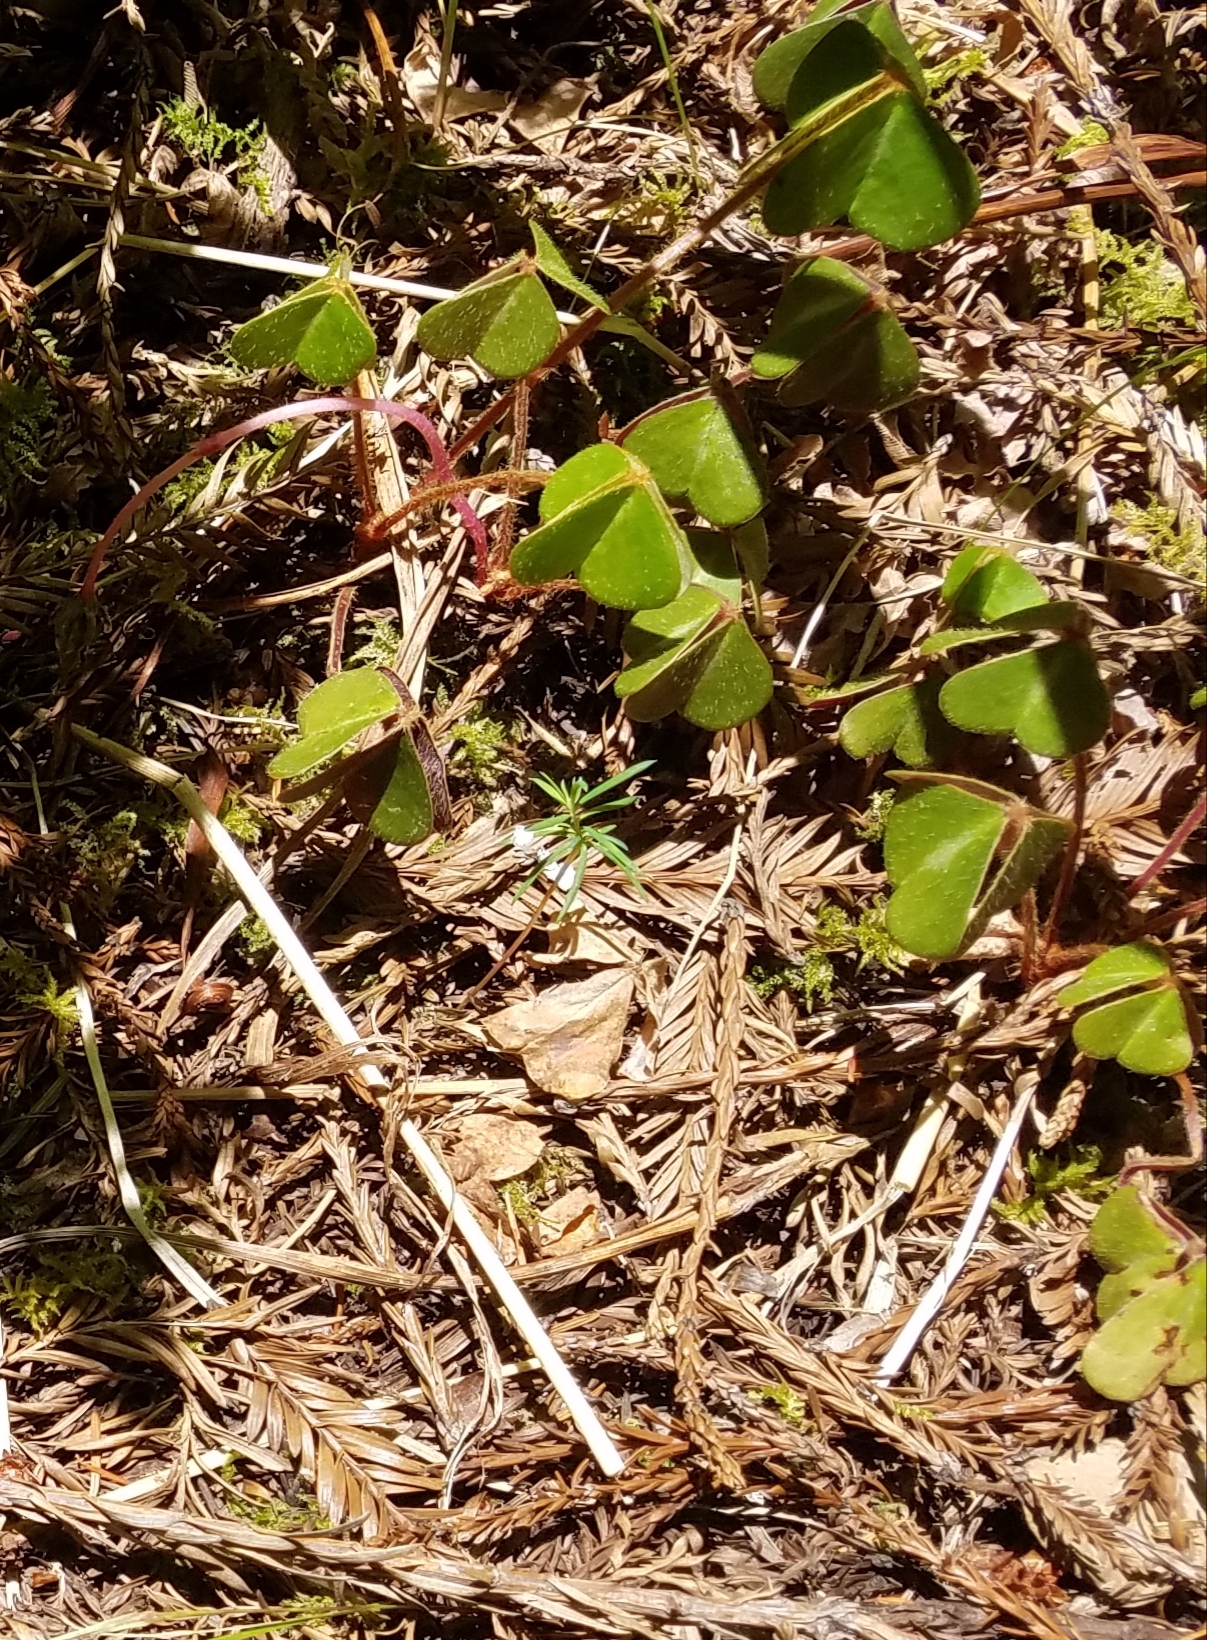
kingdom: Plantae
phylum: Tracheophyta
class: Magnoliopsida
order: Oxalidales
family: Oxalidaceae
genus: Oxalis
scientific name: Oxalis oregana
